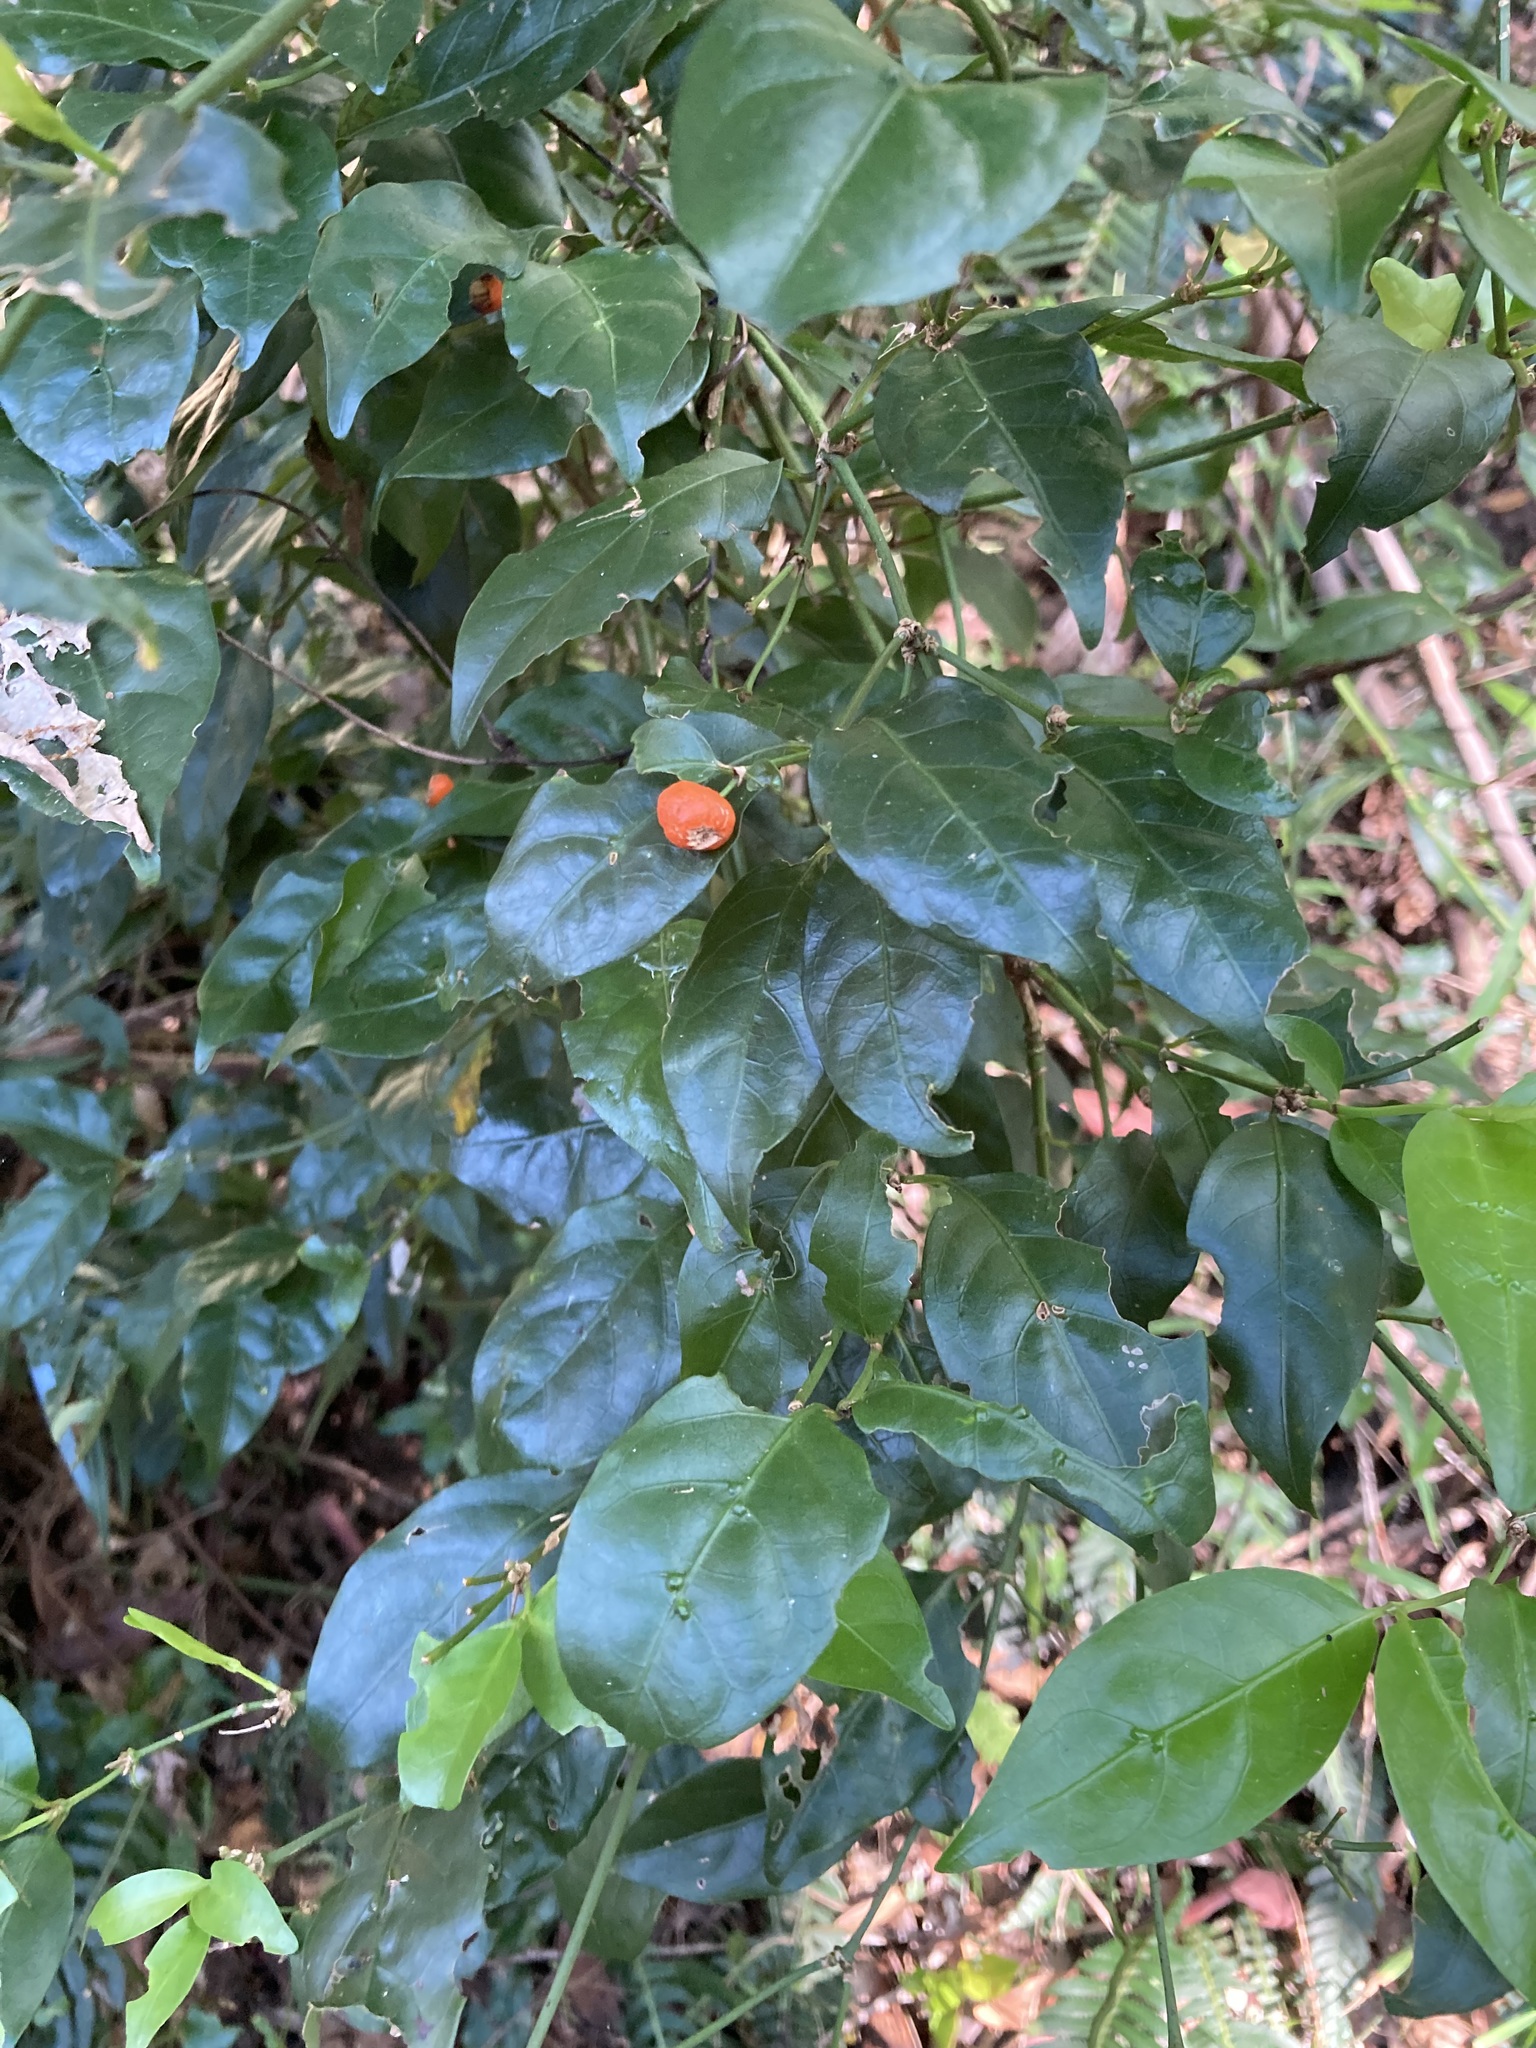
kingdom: Plantae
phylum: Tracheophyta
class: Magnoliopsida
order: Gentianales
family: Rubiaceae
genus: Gynochthodes
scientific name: Gynochthodes jasminoides
